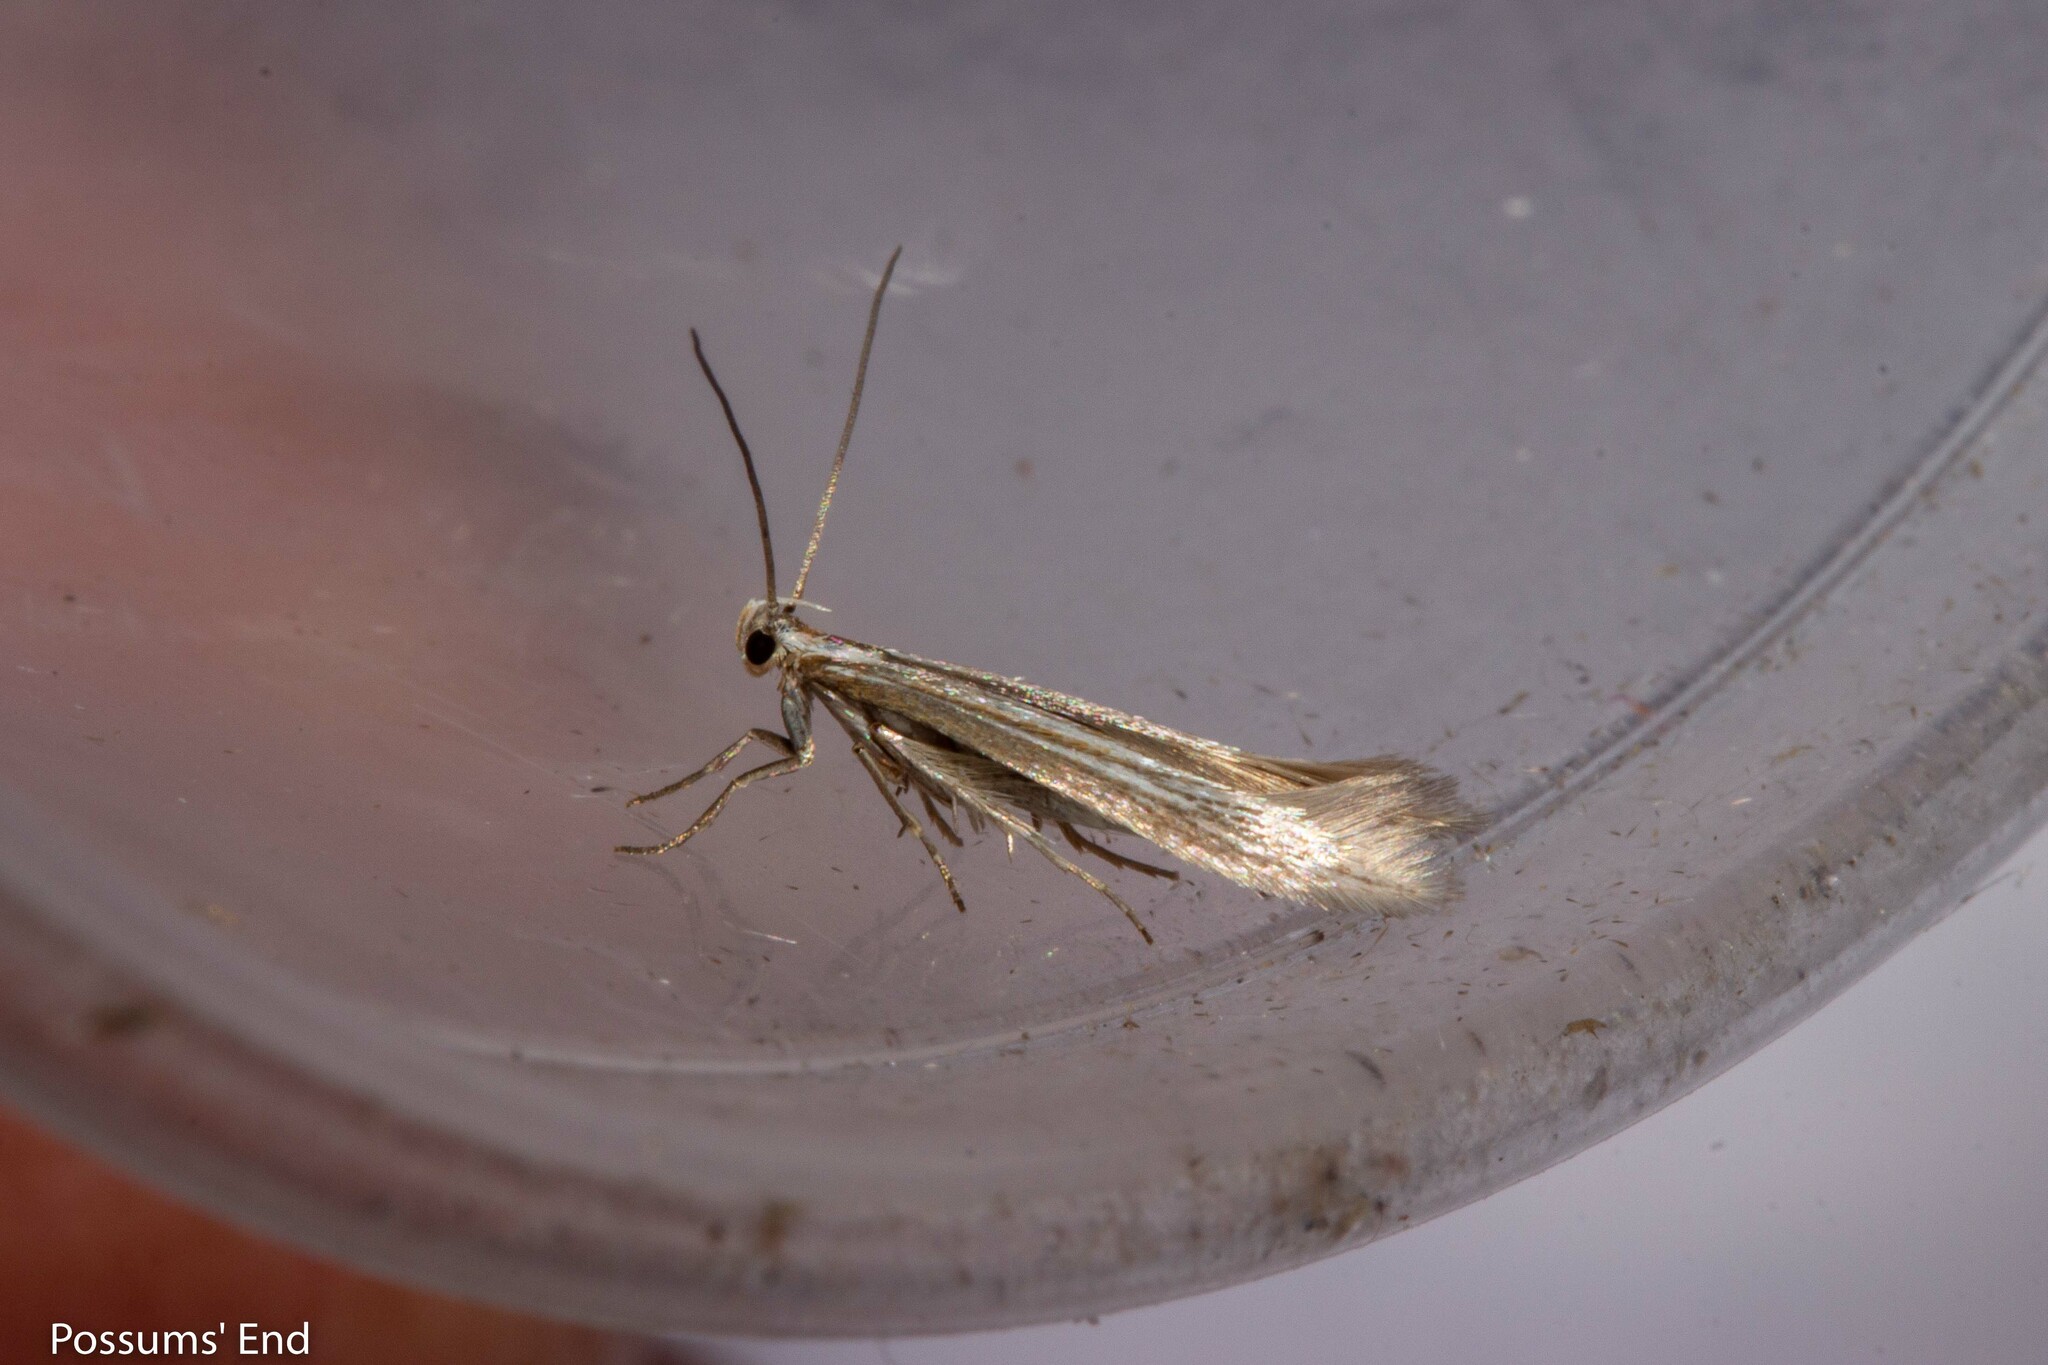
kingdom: Animalia
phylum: Arthropoda
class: Insecta
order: Lepidoptera
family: Elachistidae
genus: Elachista
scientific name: Elachista thallophora
